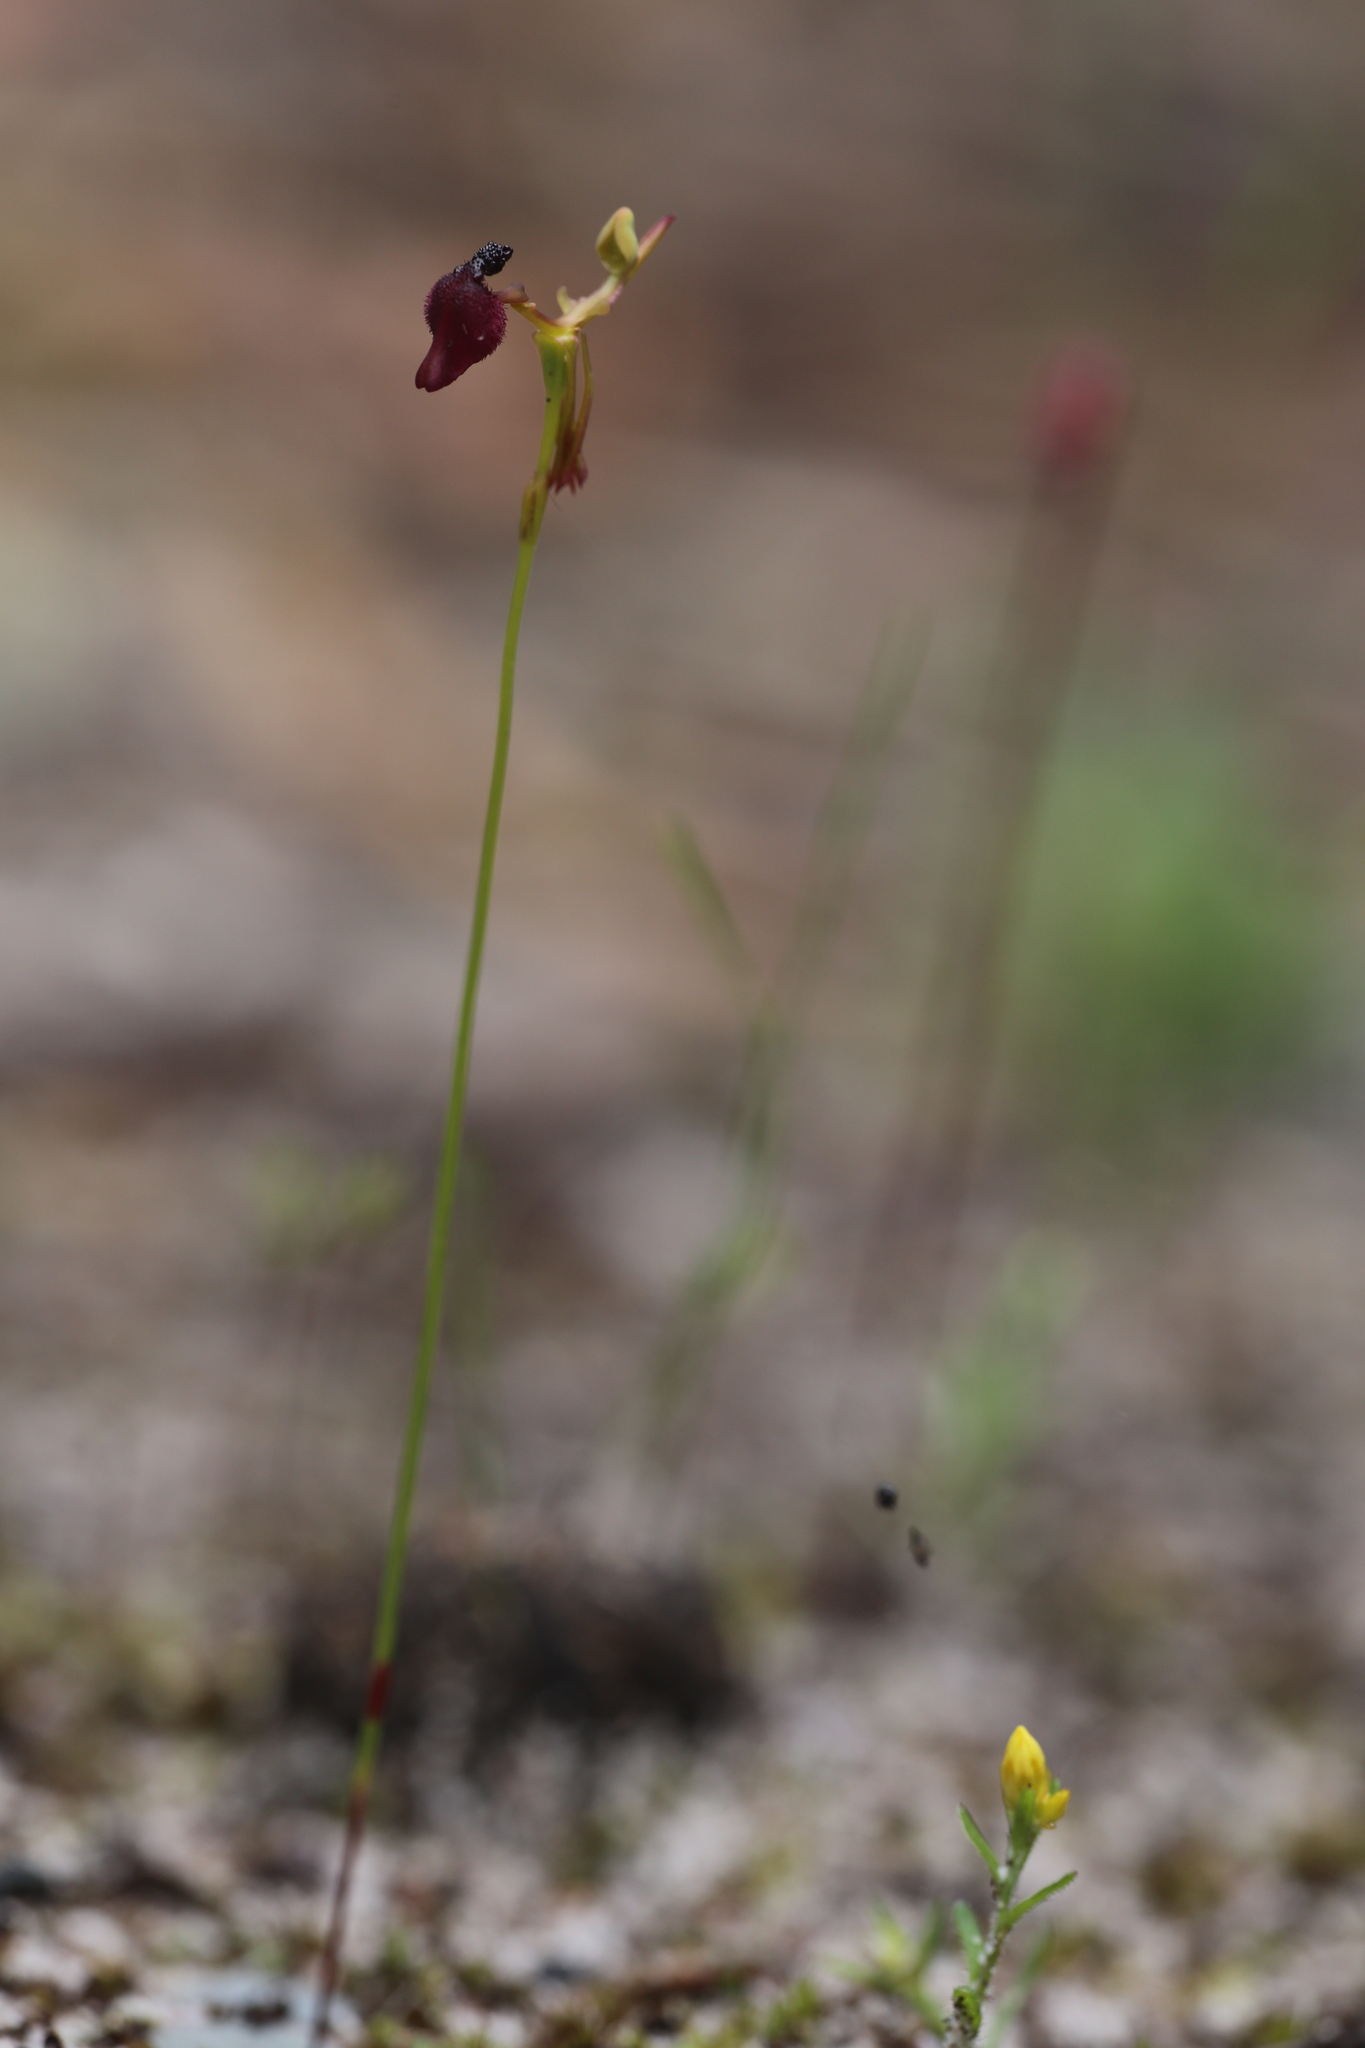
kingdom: Plantae
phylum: Tracheophyta
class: Liliopsida
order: Asparagales
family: Orchidaceae
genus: Drakaea
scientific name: Drakaea glyptodon
